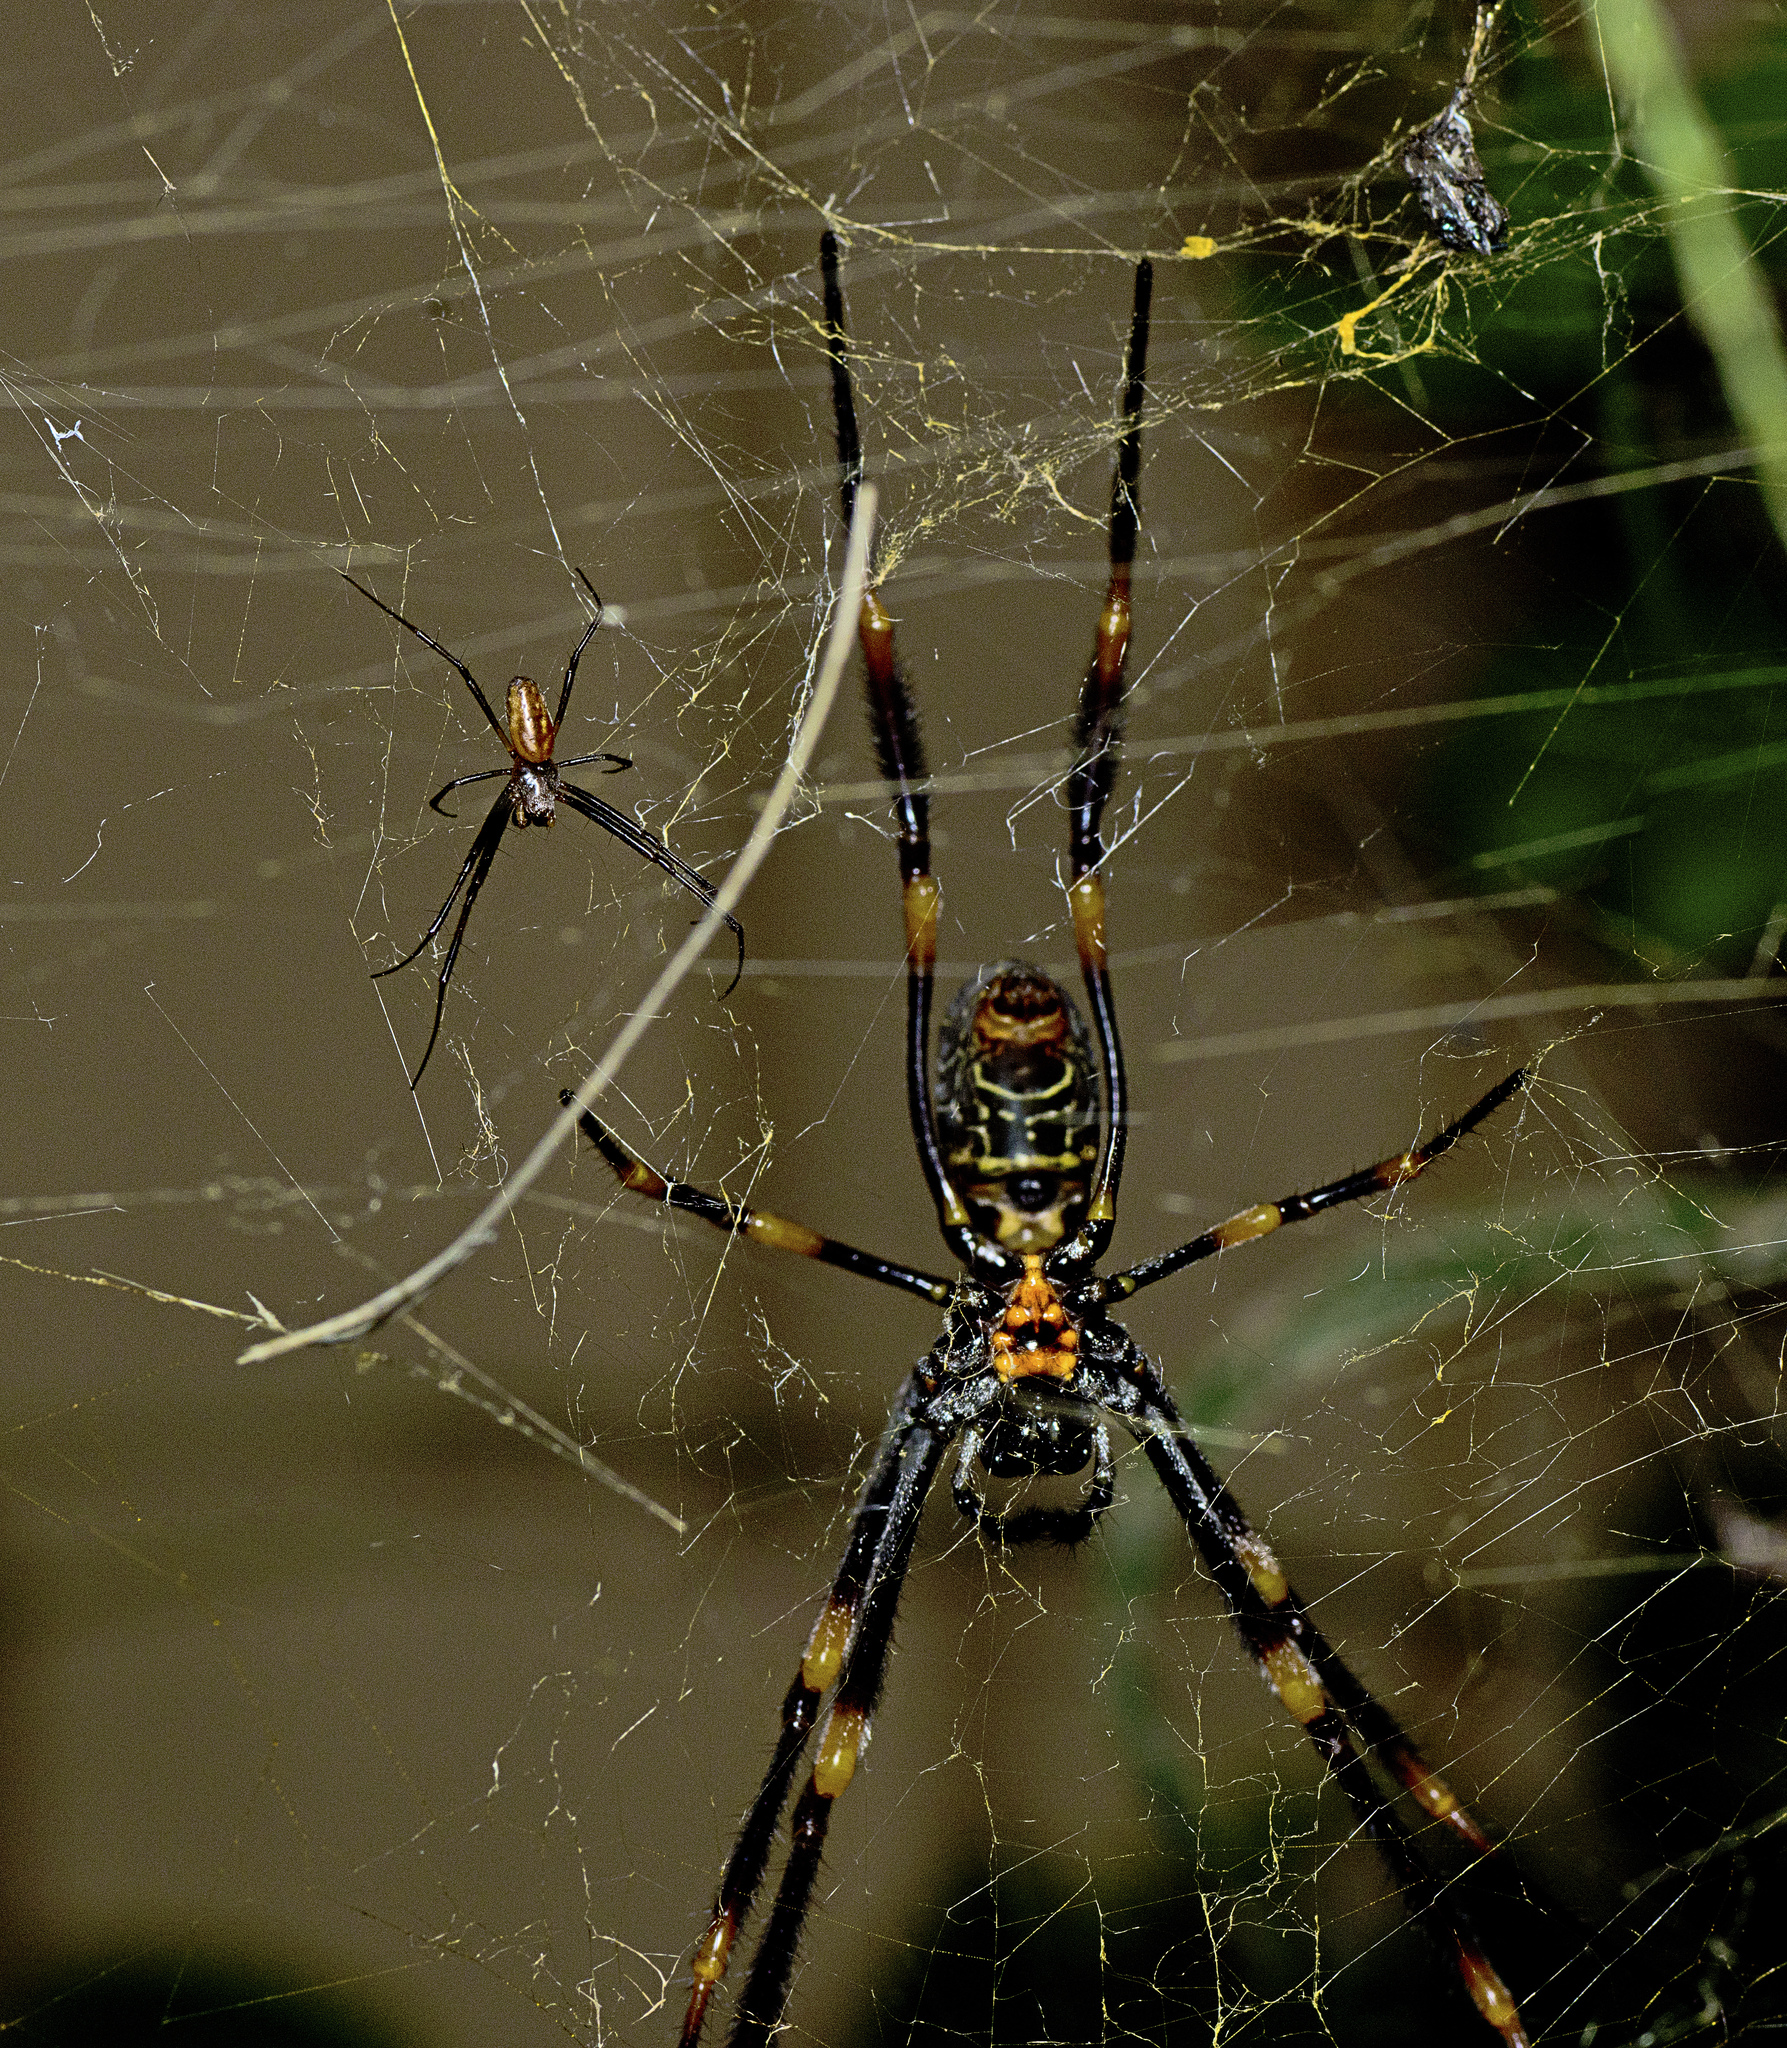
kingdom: Animalia
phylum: Arthropoda
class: Arachnida
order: Araneae
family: Araneidae
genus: Trichonephila
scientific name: Trichonephila plumipes
